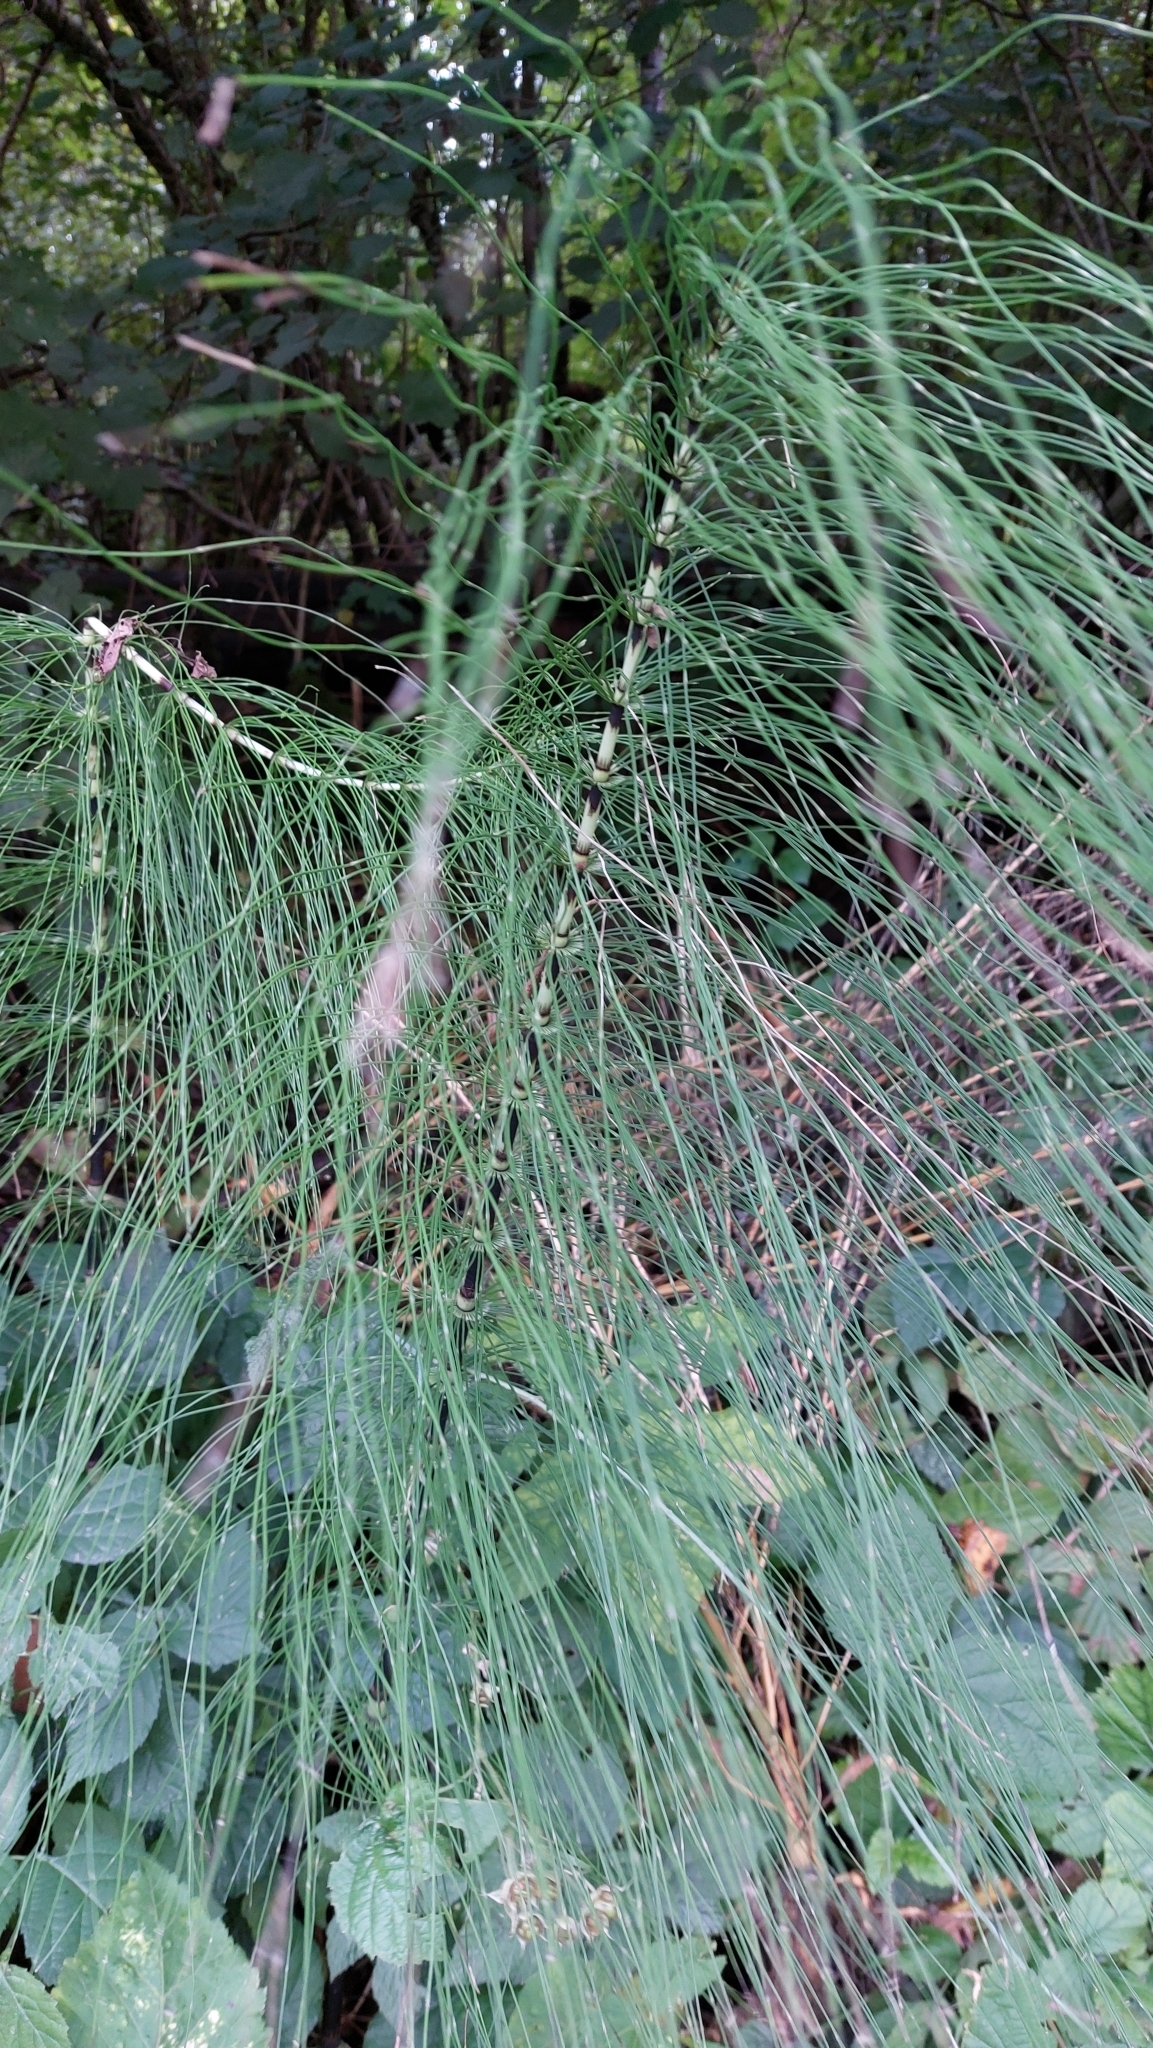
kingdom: Plantae
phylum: Tracheophyta
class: Polypodiopsida
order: Equisetales
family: Equisetaceae
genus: Equisetum
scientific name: Equisetum telmateia
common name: Great horsetail
